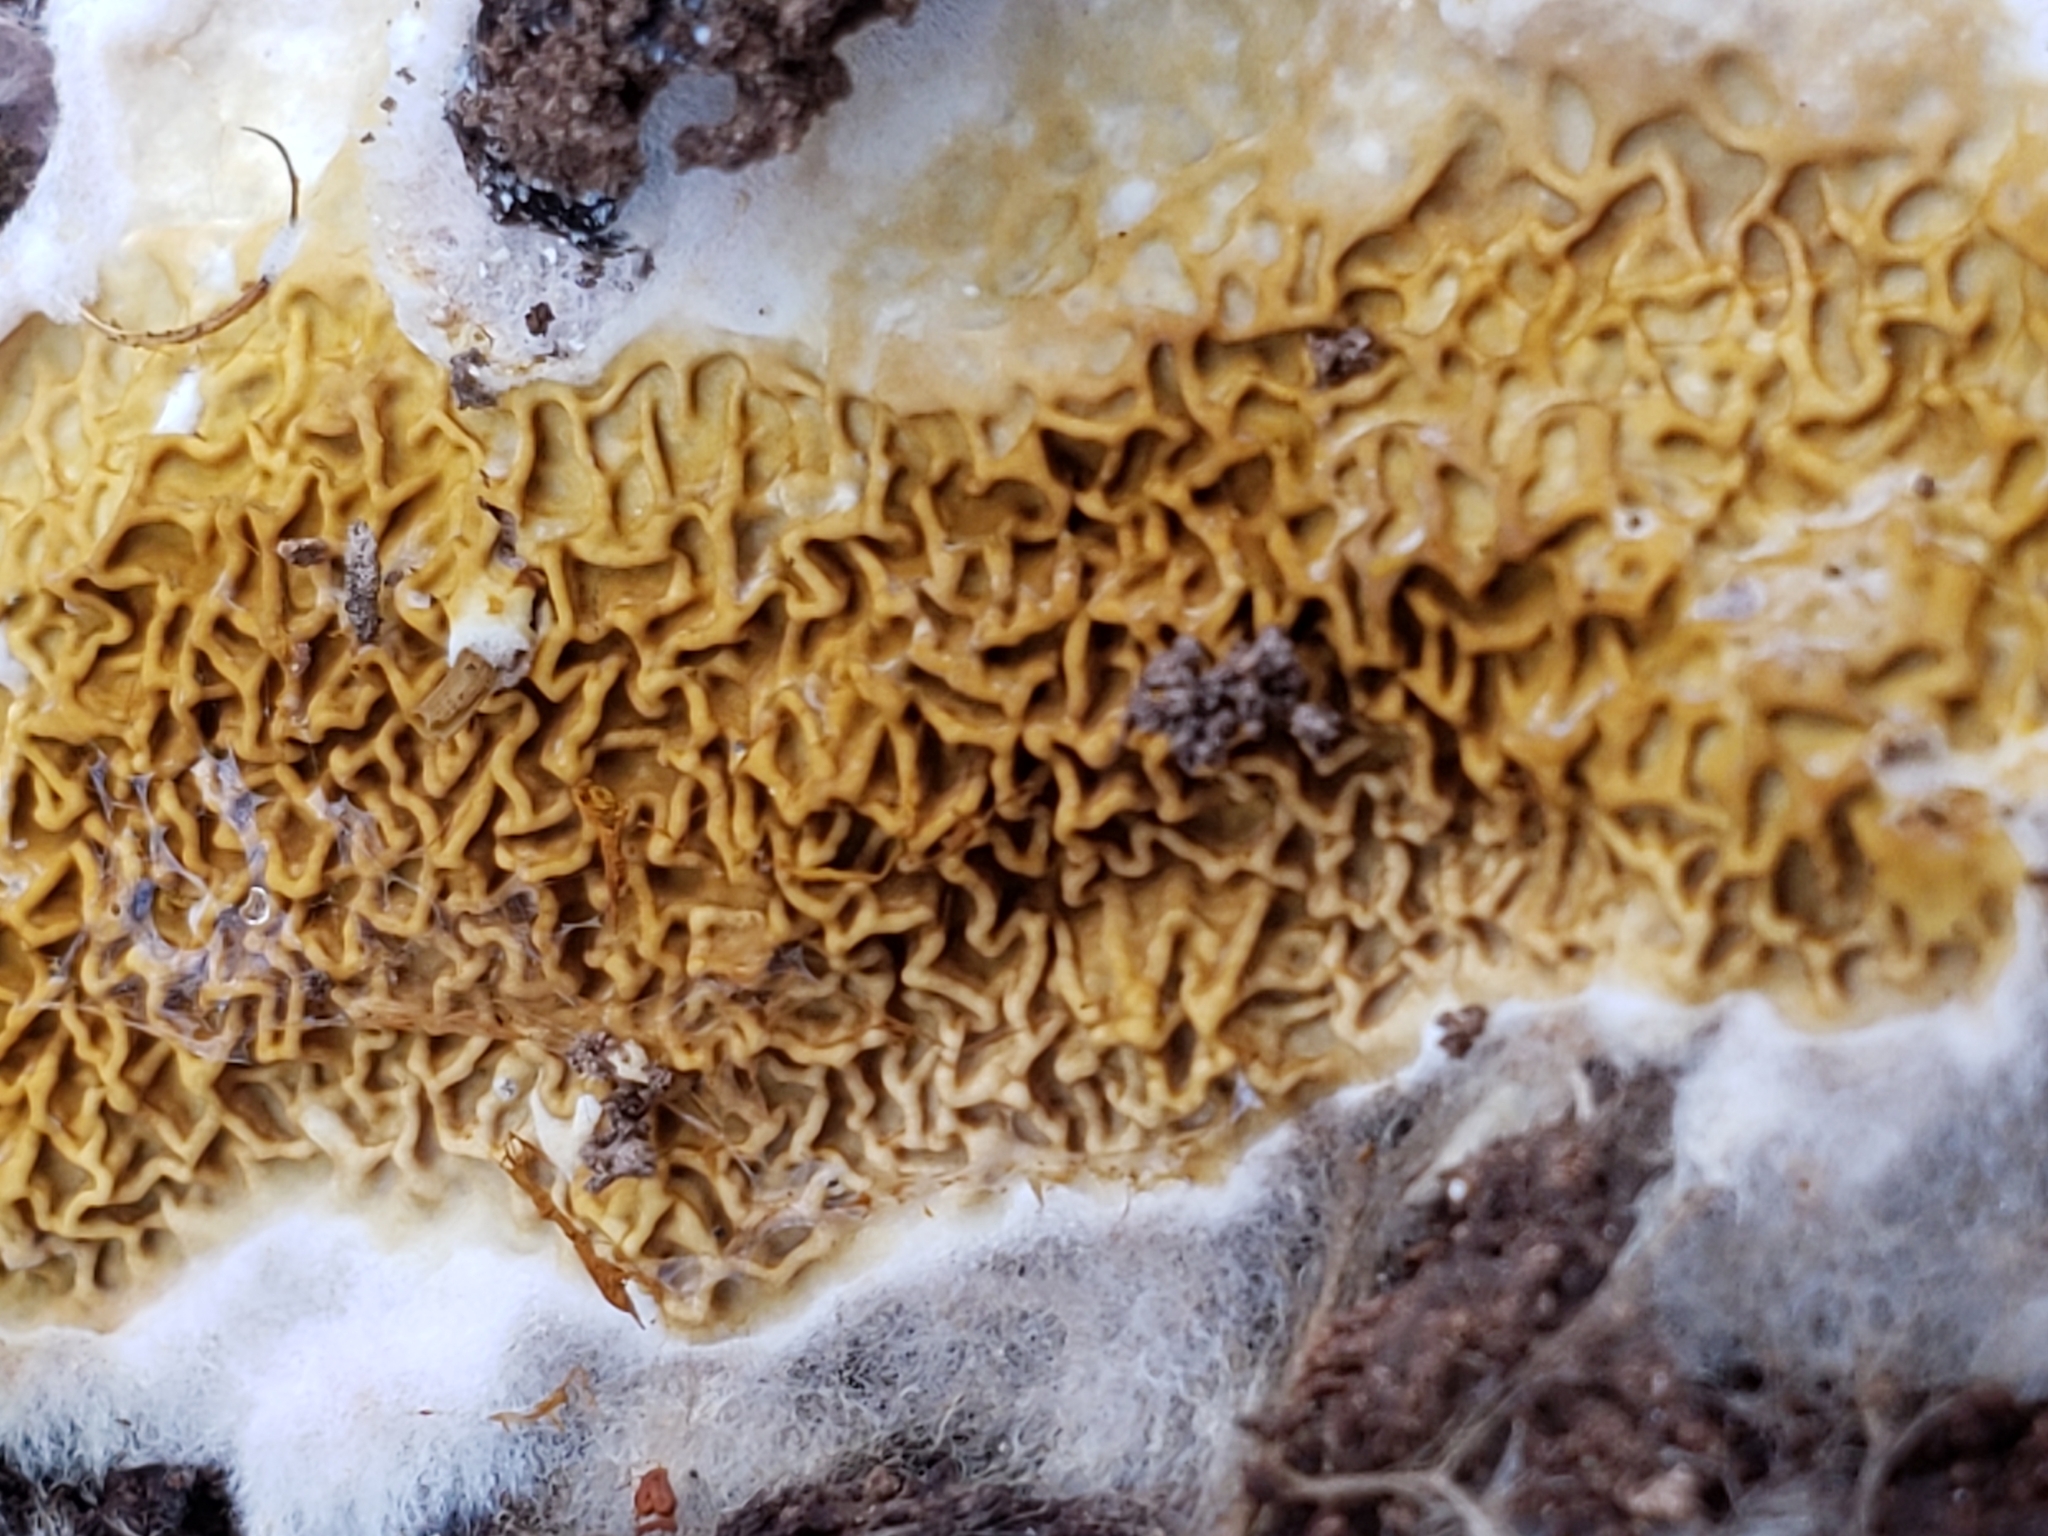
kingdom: Fungi
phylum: Basidiomycota
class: Agaricomycetes
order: Boletales
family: Serpulaceae
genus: Serpula
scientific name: Serpula himantioides
